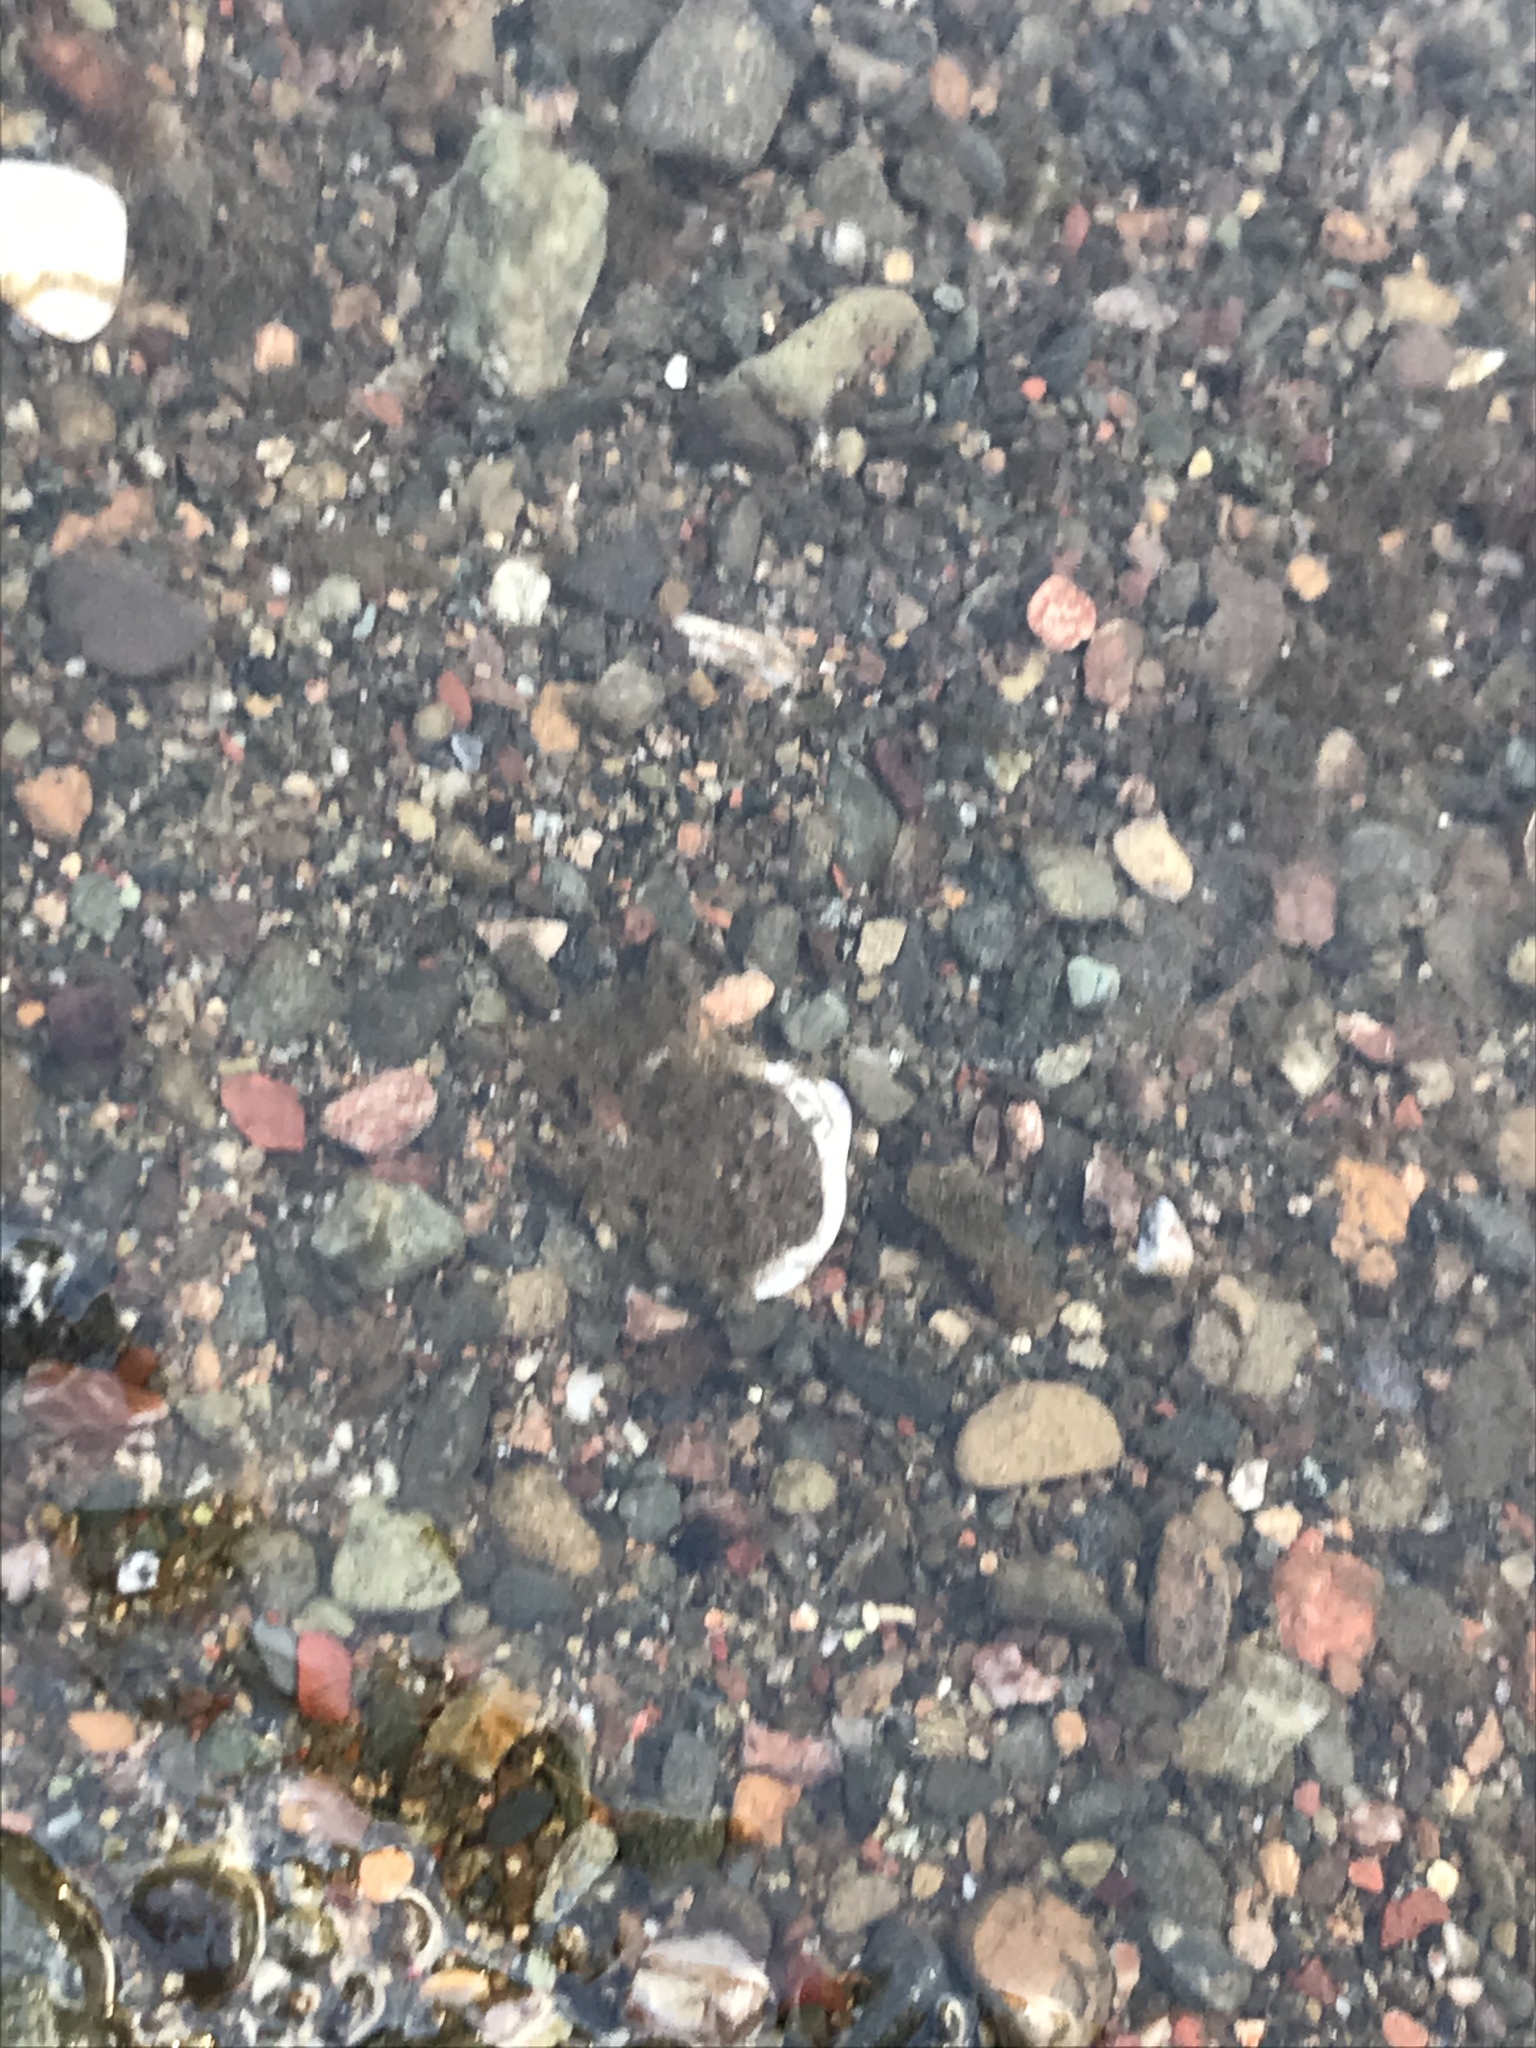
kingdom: Animalia
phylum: Mollusca
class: Bivalvia
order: Venerida
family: Cyrenidae
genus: Corbicula
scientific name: Corbicula fluminea
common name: Asian clam
